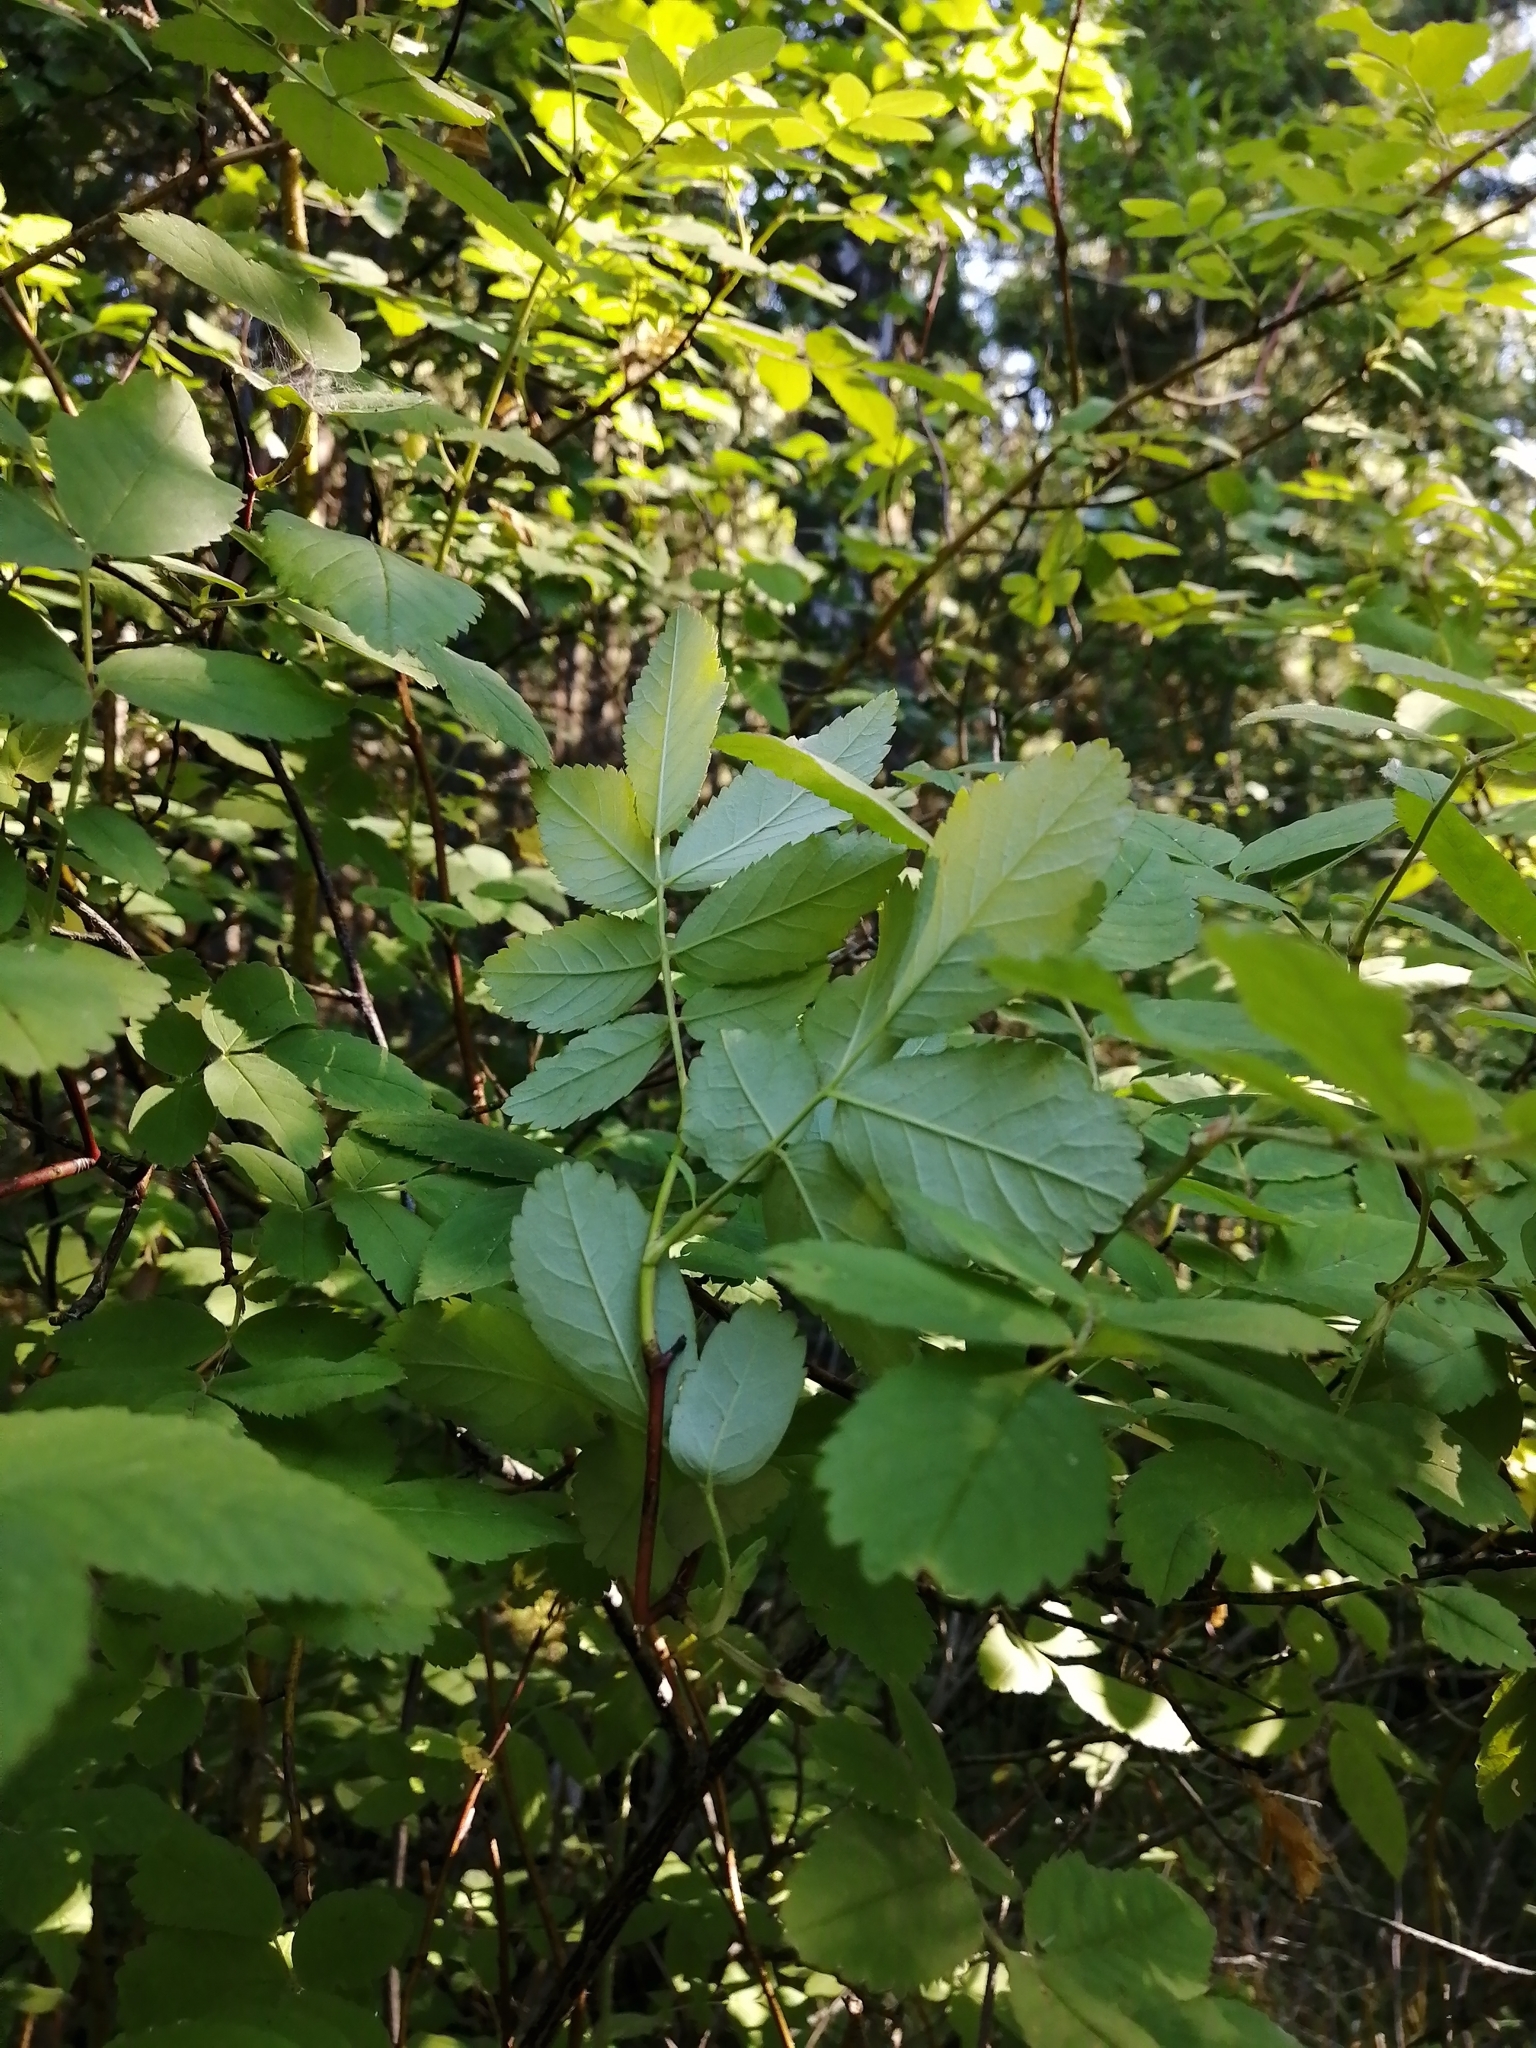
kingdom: Plantae
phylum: Tracheophyta
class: Magnoliopsida
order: Rosales
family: Rosaceae
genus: Rosa
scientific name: Rosa majalis
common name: Cinnamon rose
